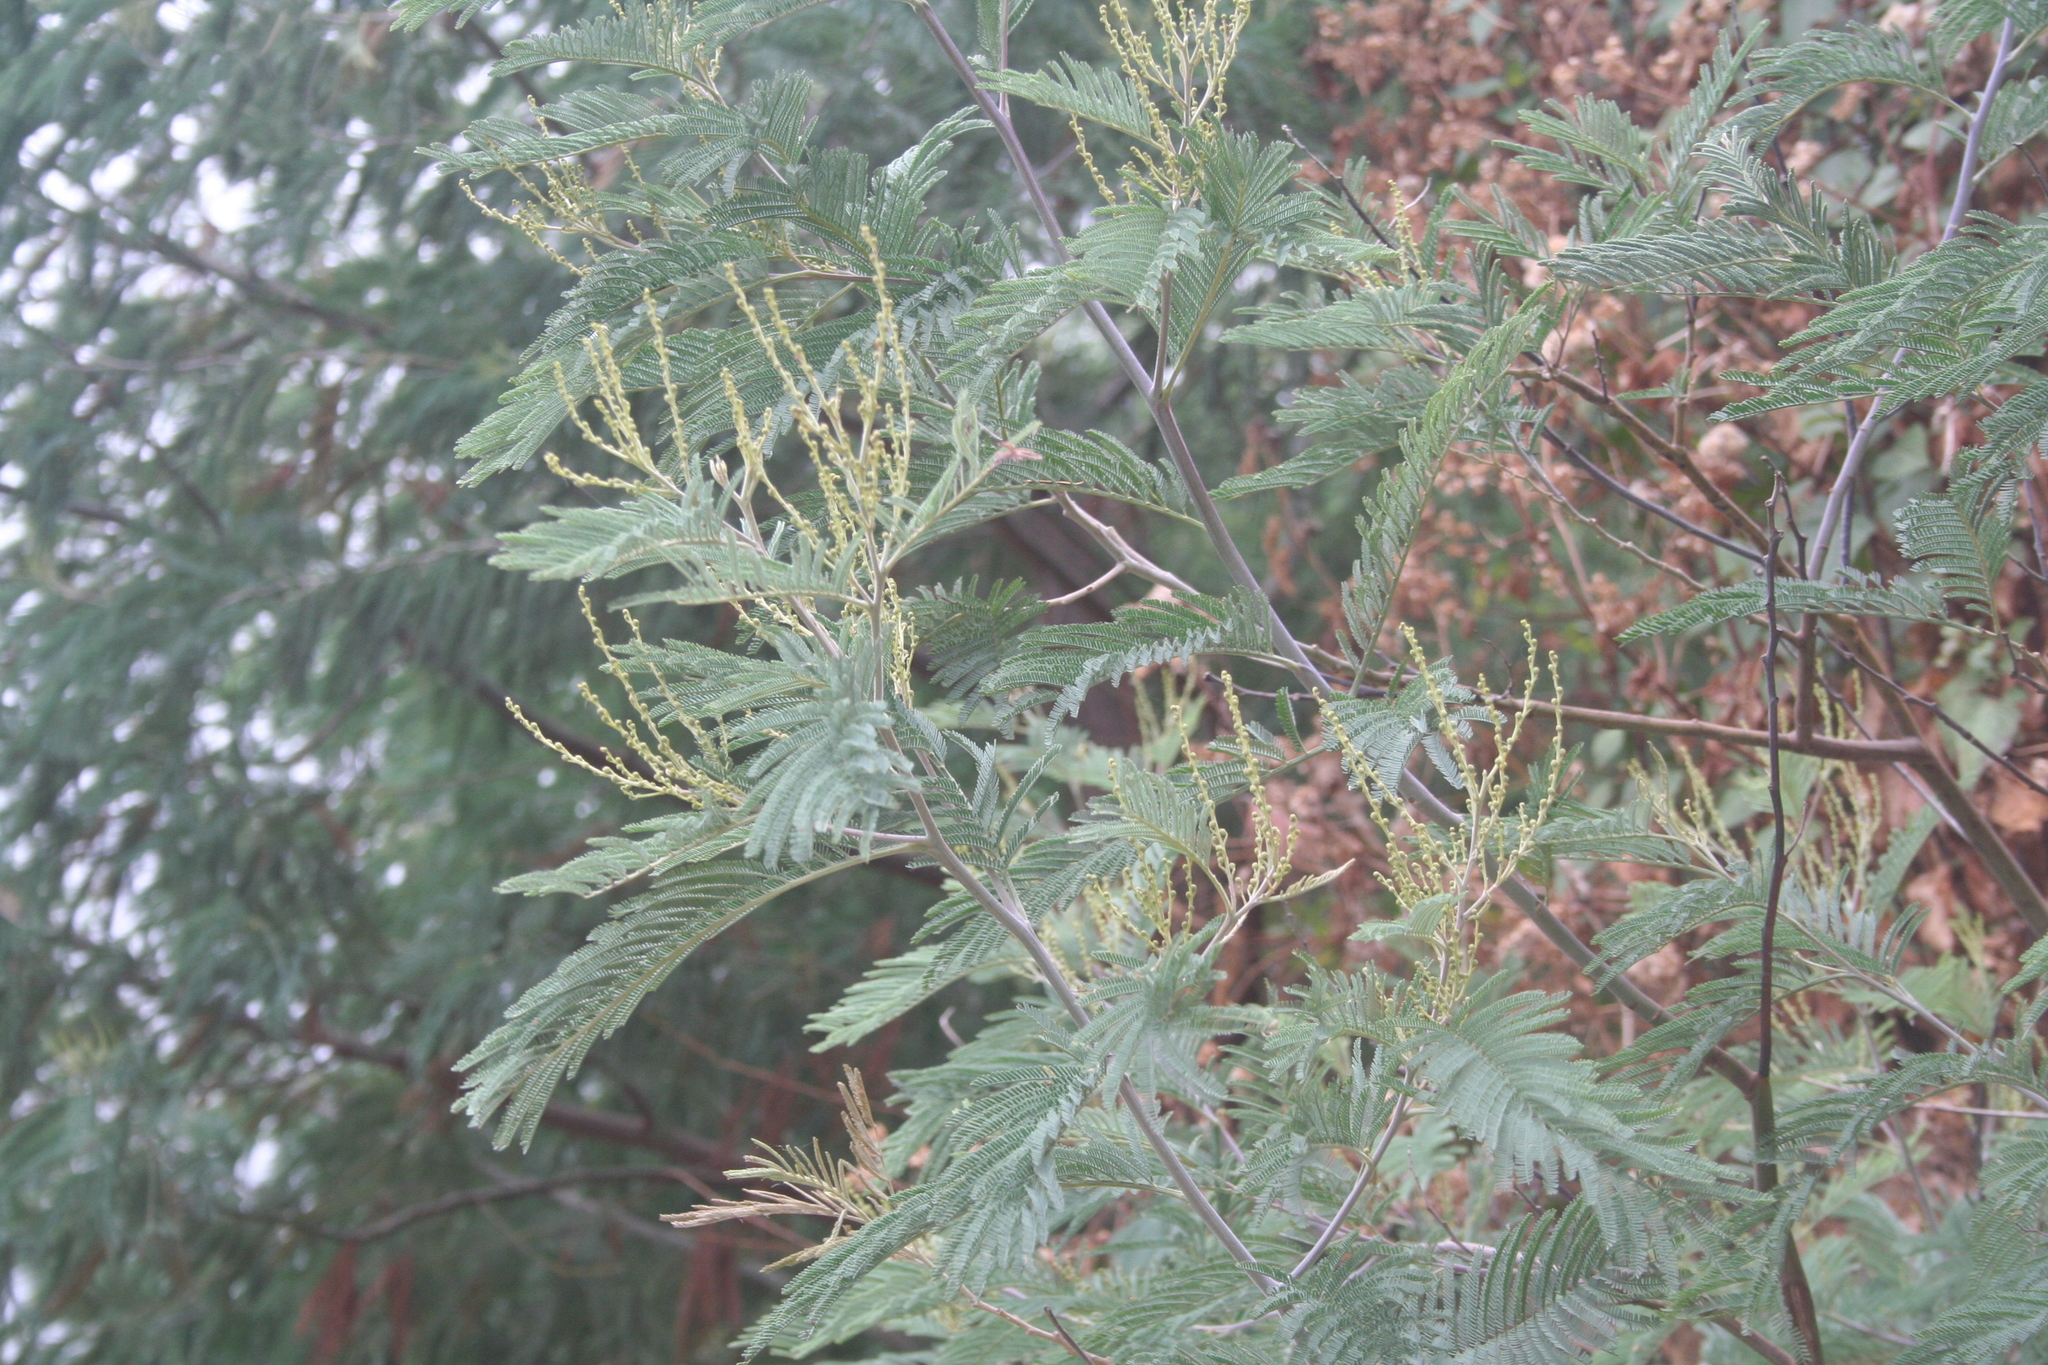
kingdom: Plantae
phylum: Tracheophyta
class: Magnoliopsida
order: Fabales
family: Fabaceae
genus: Acacia
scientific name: Acacia mearnsii
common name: Black wattle
